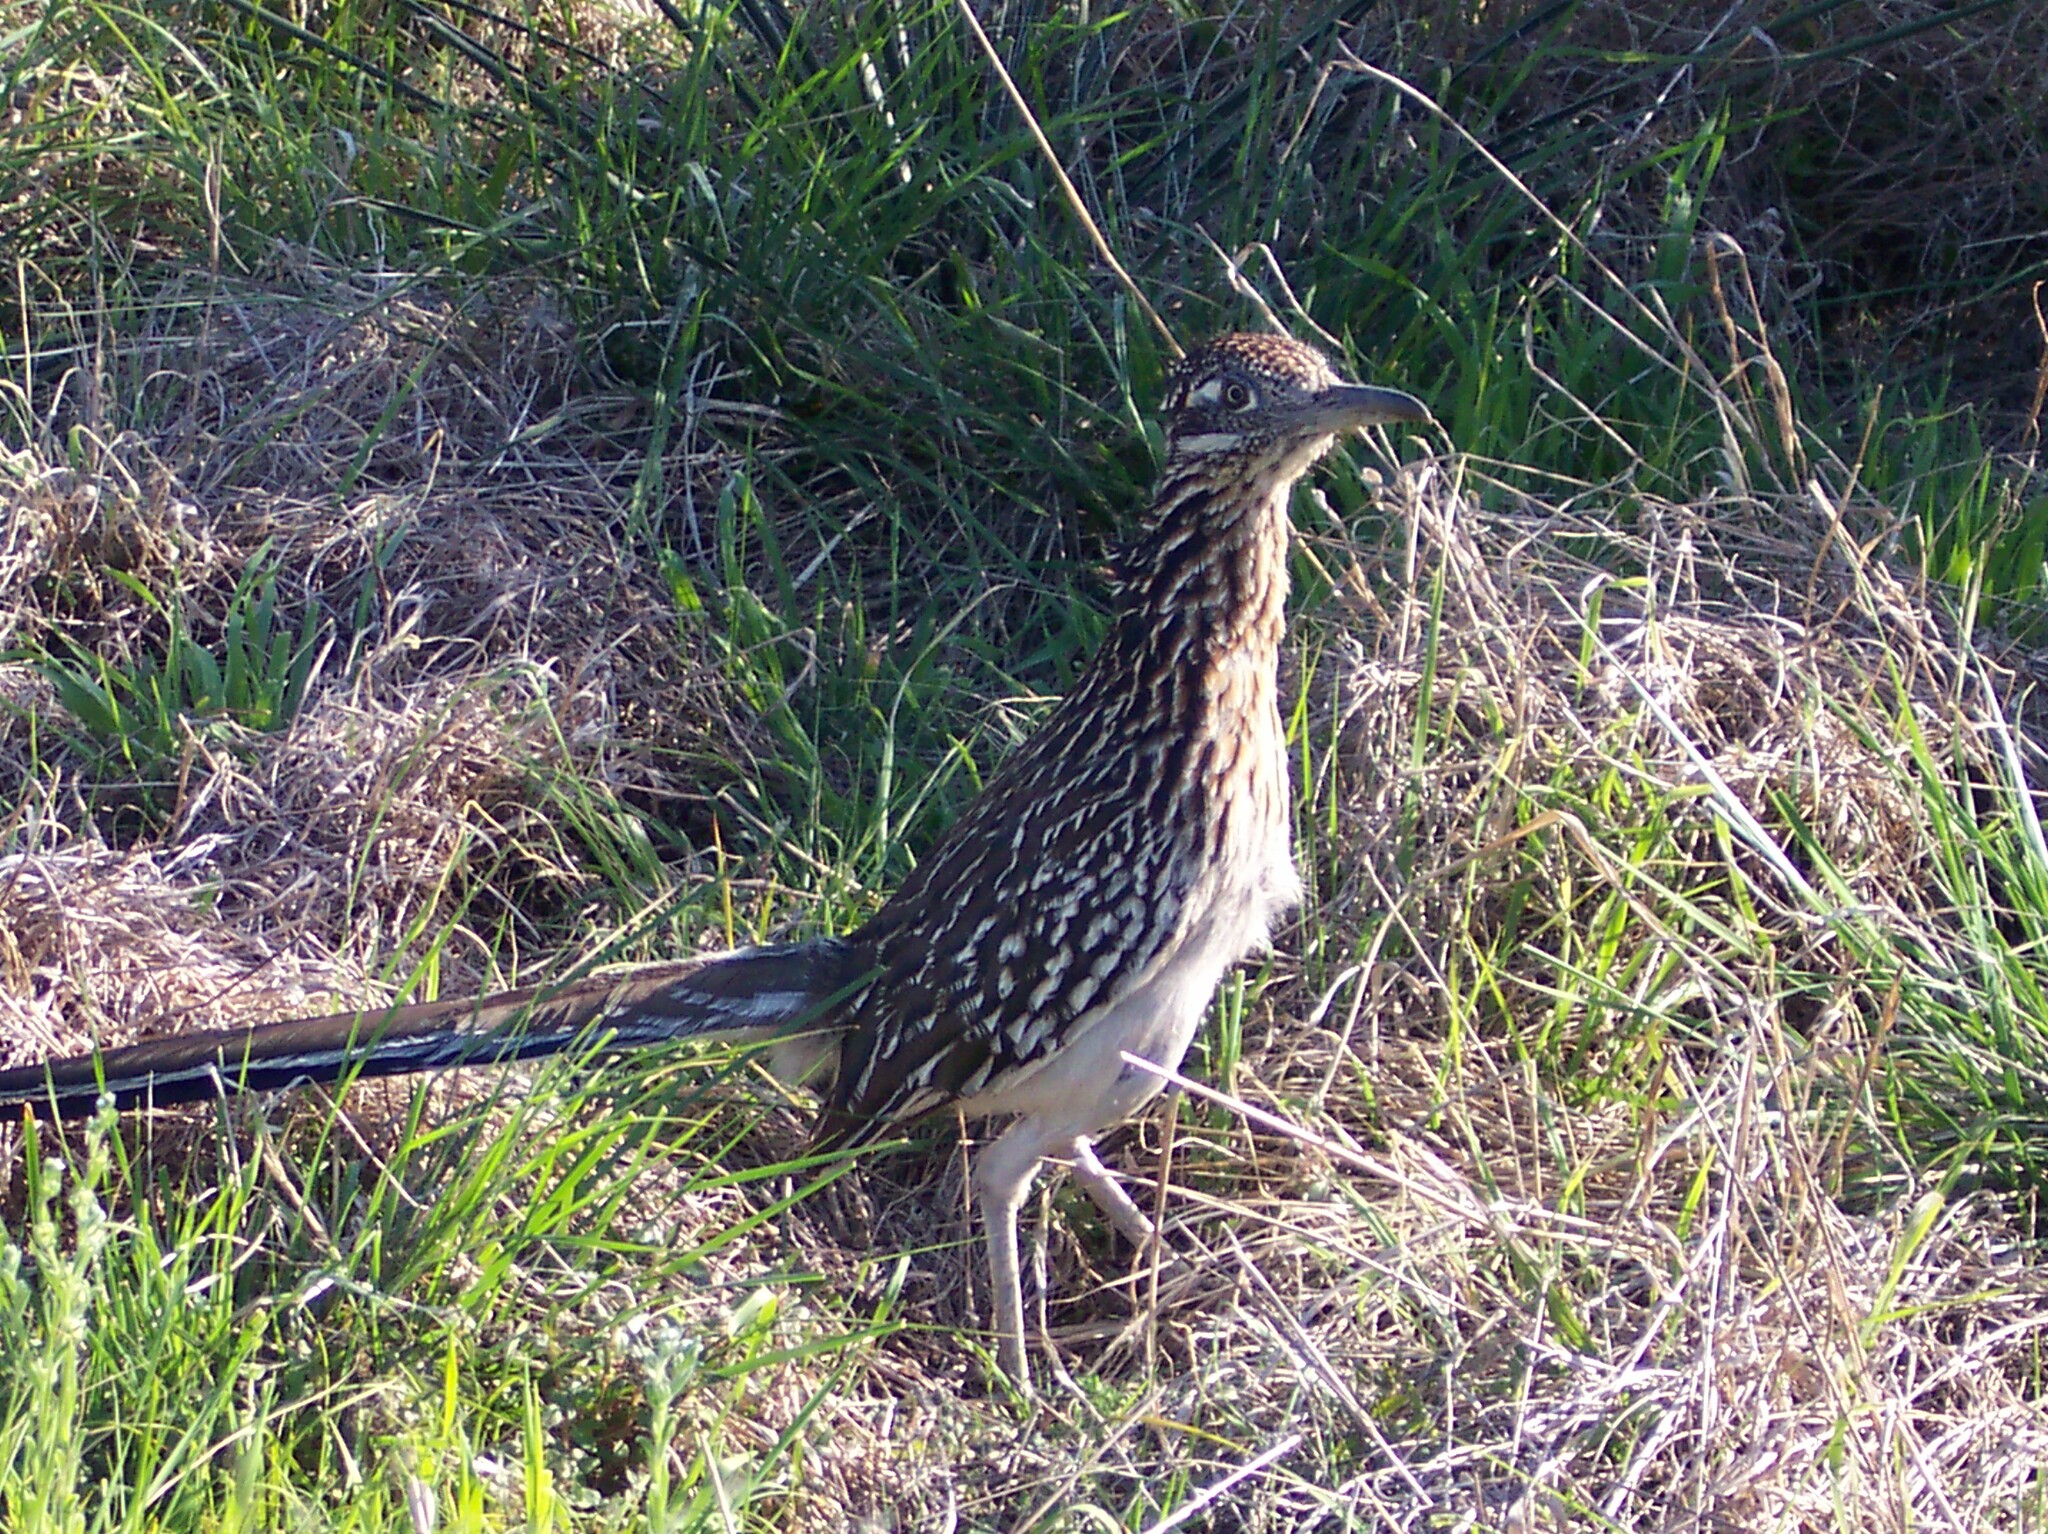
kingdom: Animalia
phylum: Chordata
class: Aves
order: Cuculiformes
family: Cuculidae
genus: Geococcyx
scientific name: Geococcyx californianus
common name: Greater roadrunner
